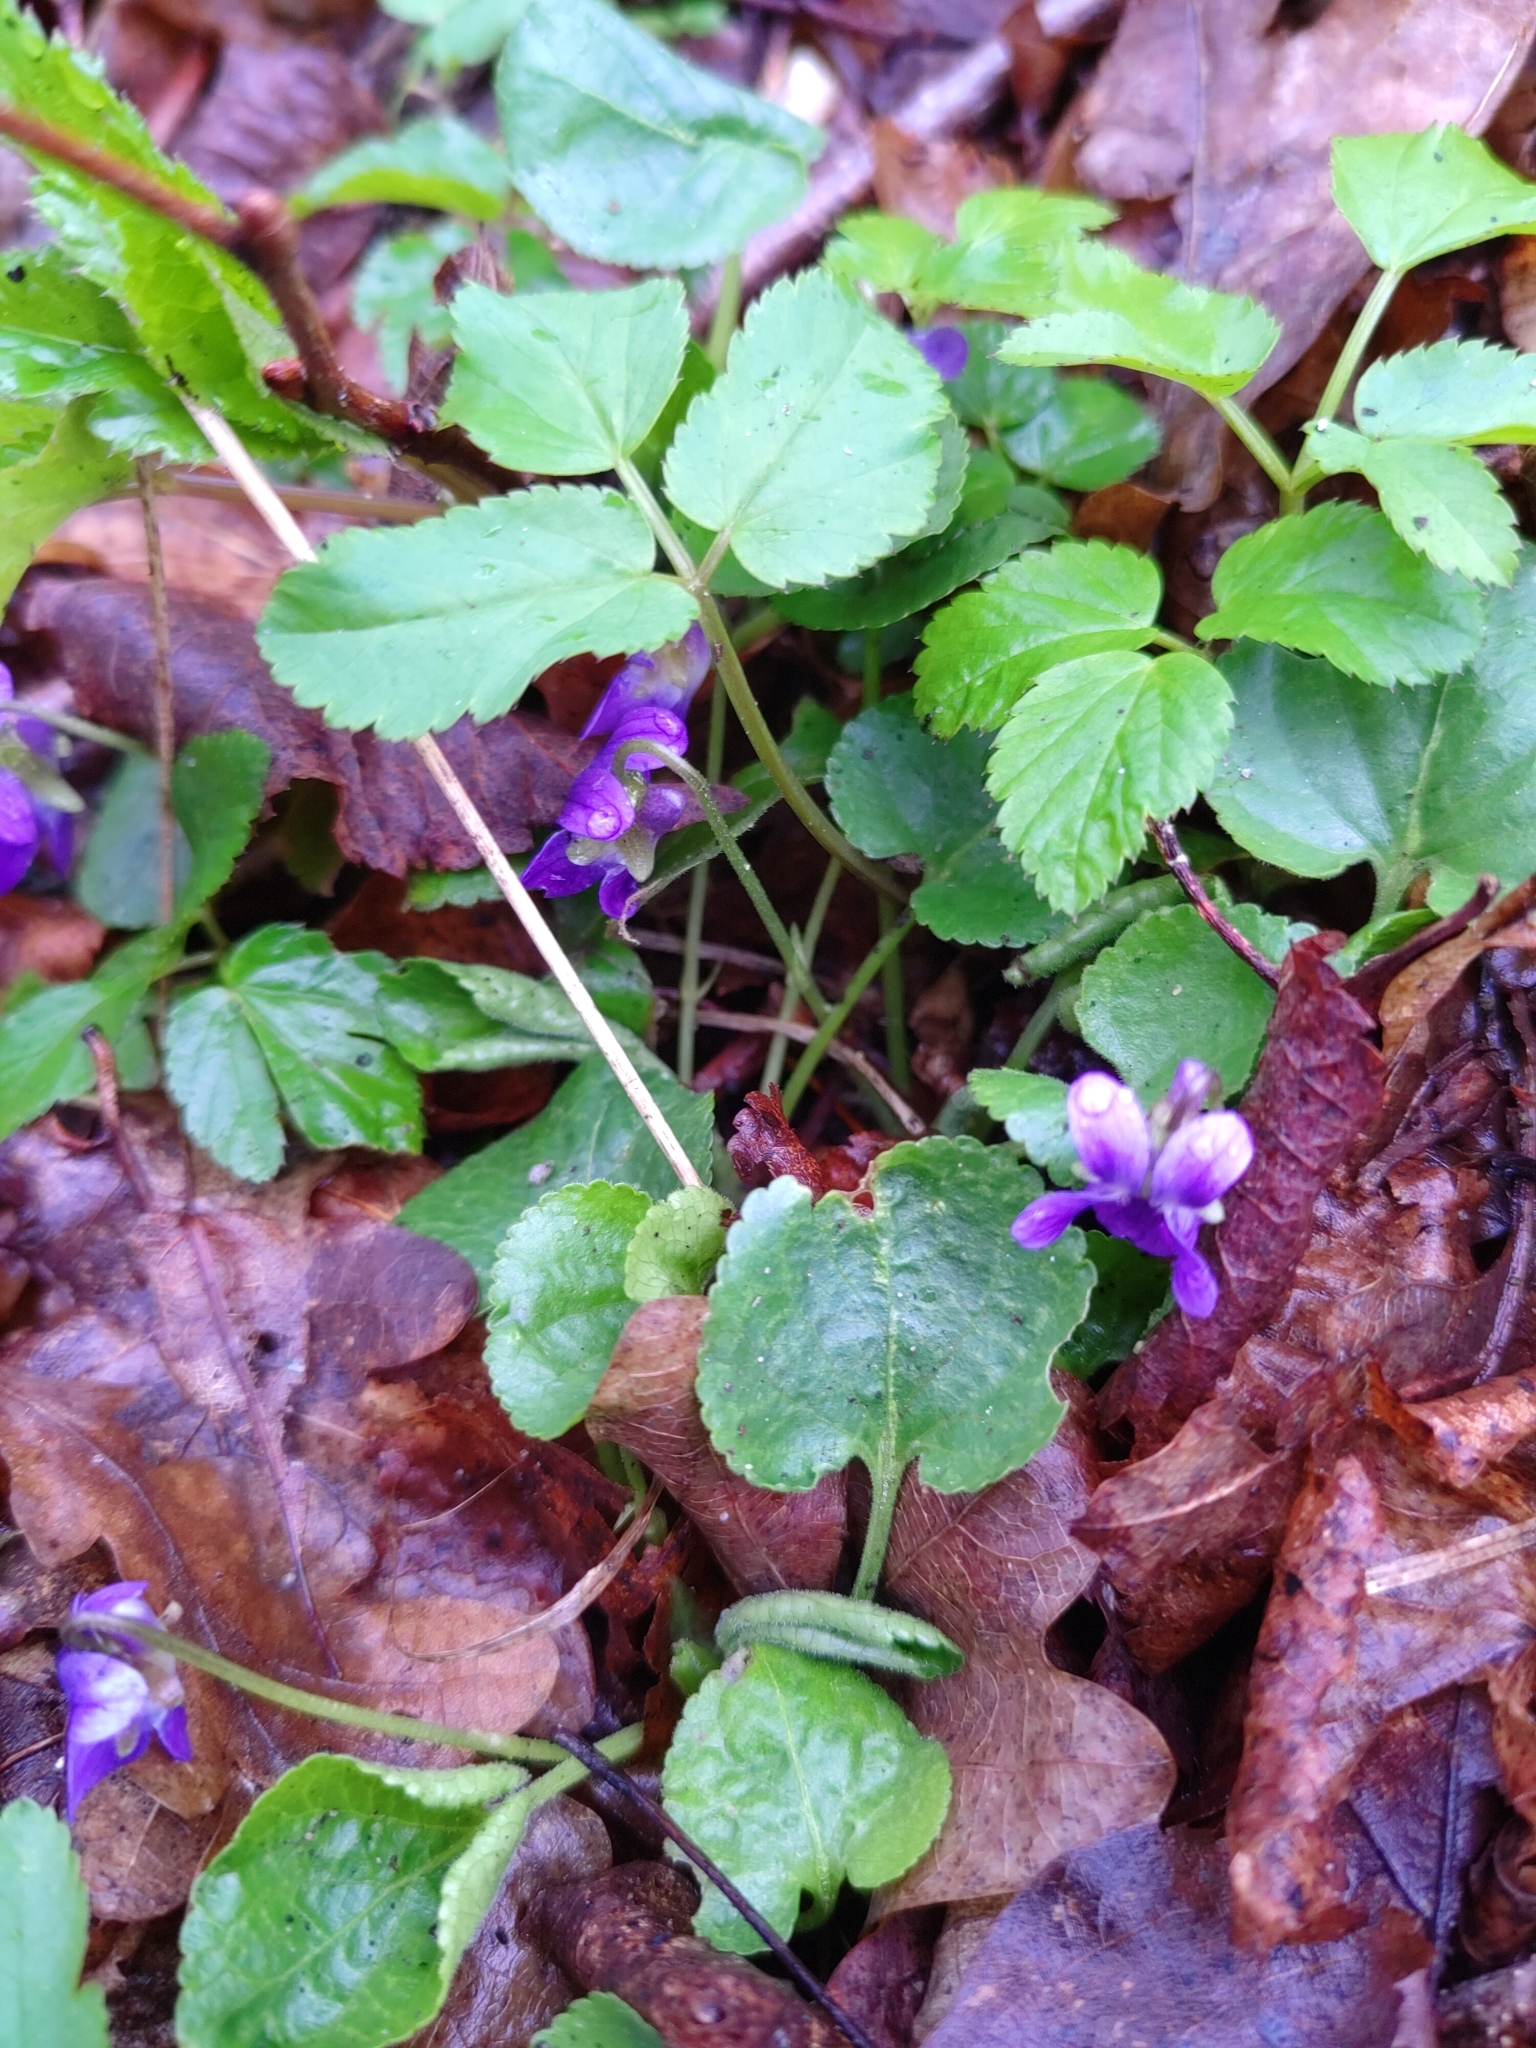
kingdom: Plantae
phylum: Tracheophyta
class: Magnoliopsida
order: Malpighiales
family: Violaceae
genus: Viola
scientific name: Viola odorata
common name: Sweet violet
